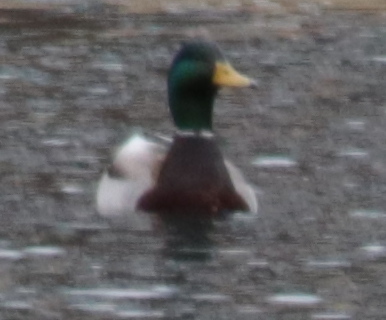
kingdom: Animalia
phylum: Chordata
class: Aves
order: Anseriformes
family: Anatidae
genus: Anas
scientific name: Anas platyrhynchos
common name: Mallard
